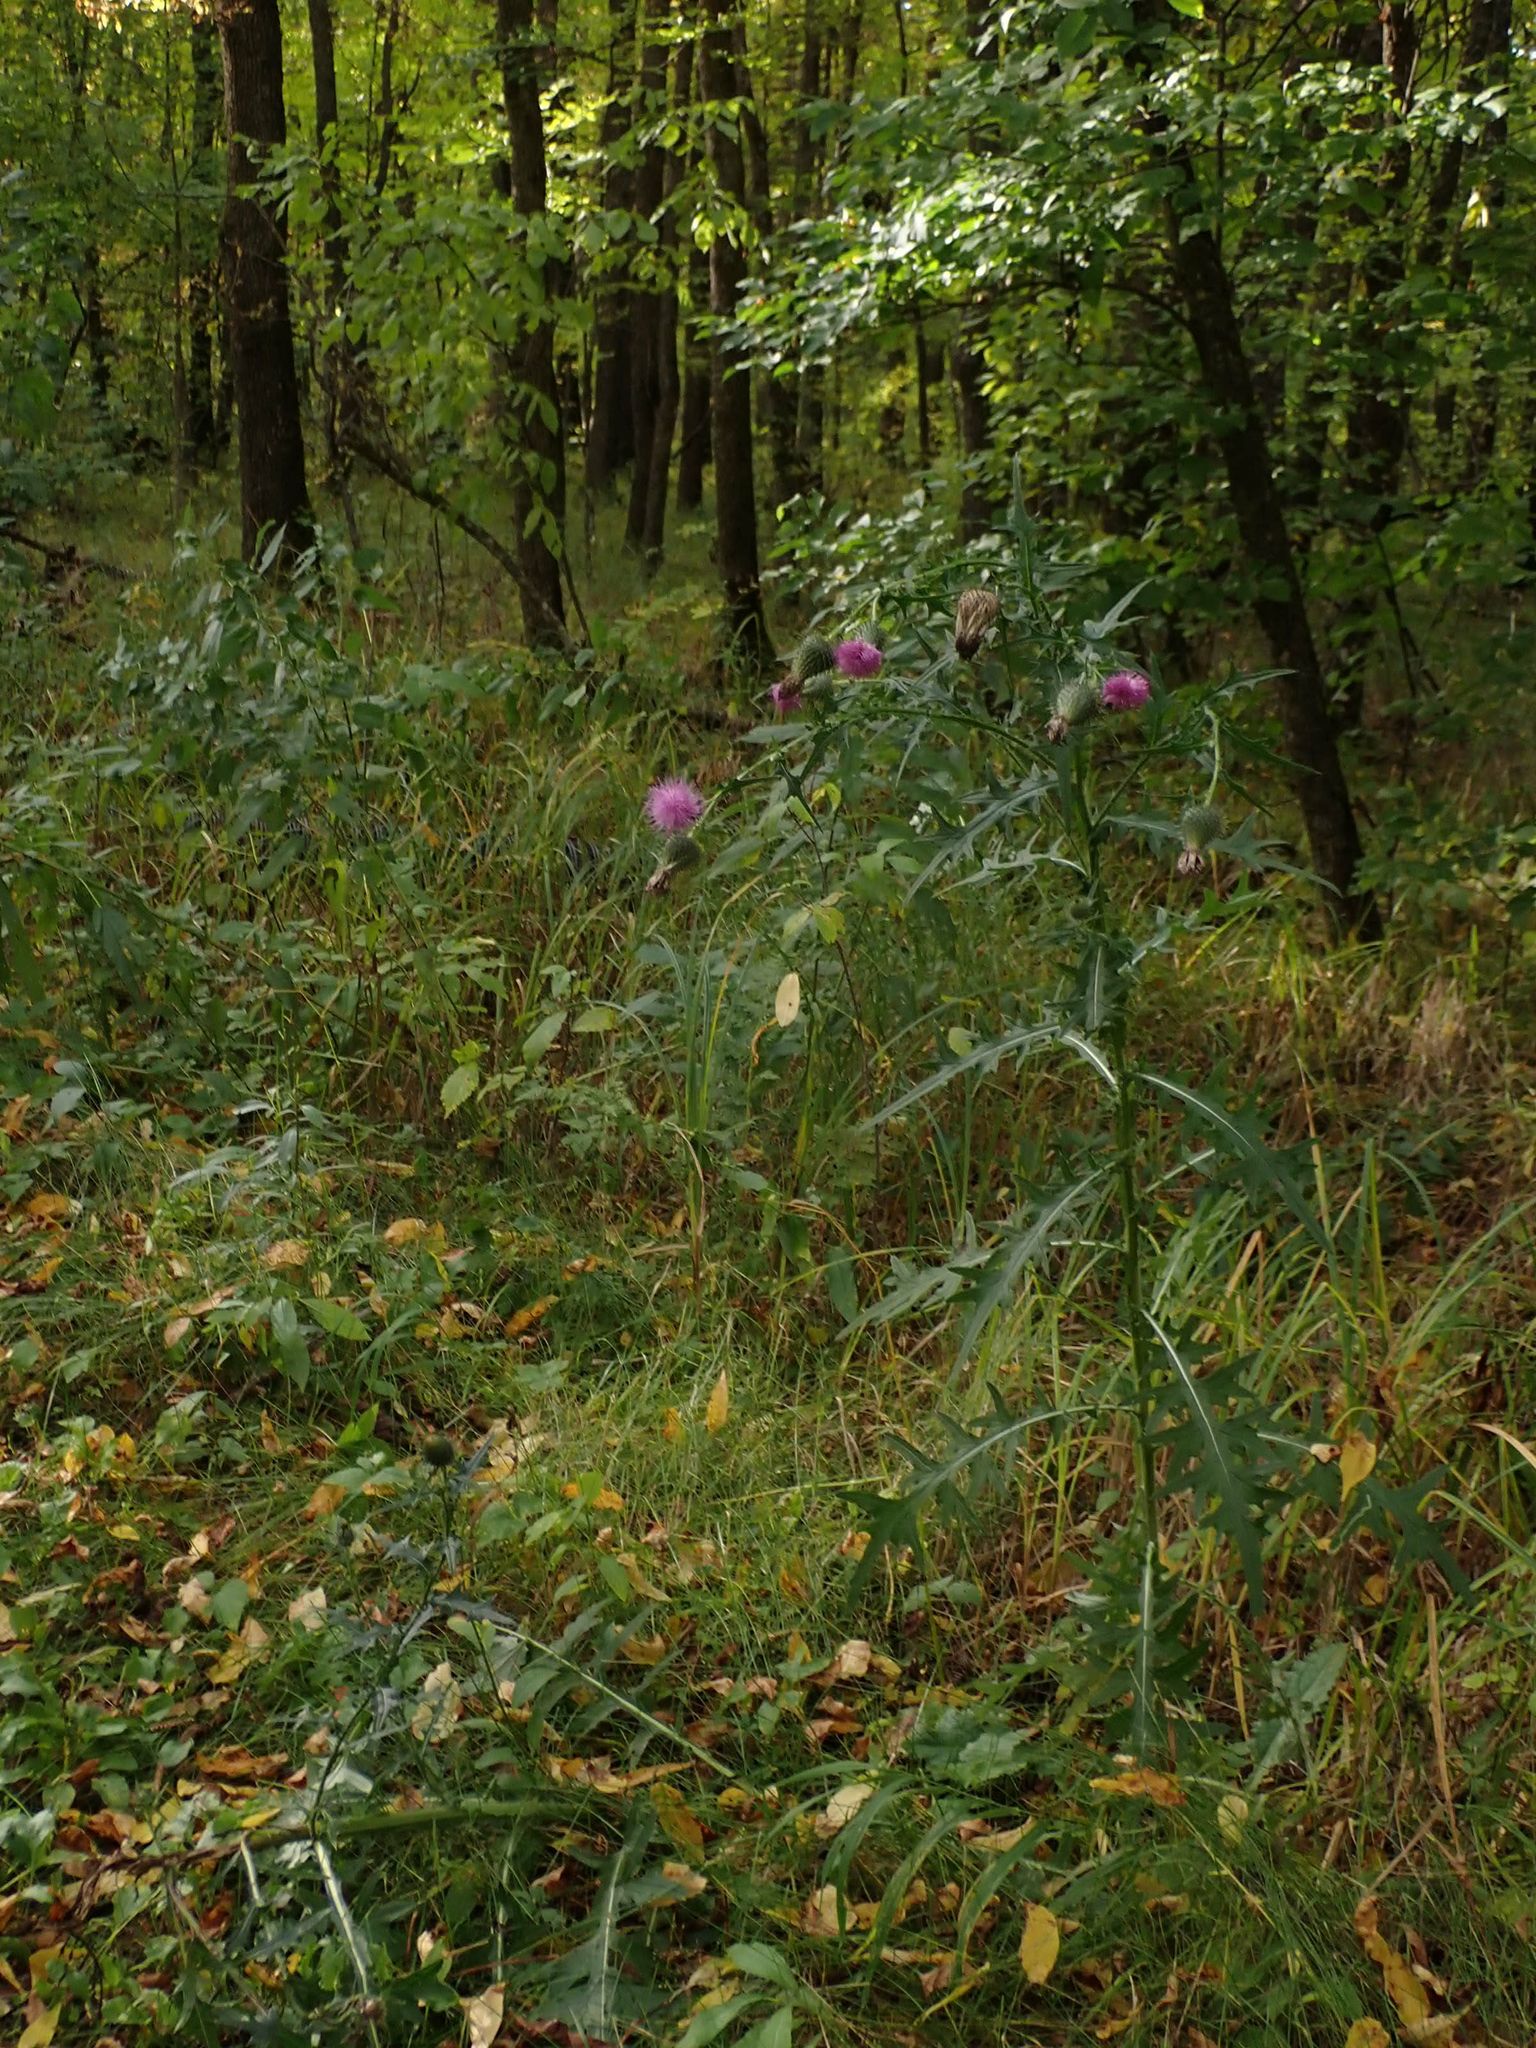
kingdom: Plantae
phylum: Tracheophyta
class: Magnoliopsida
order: Asterales
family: Asteraceae
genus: Cirsium
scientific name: Cirsium vulgare
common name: Bull thistle
